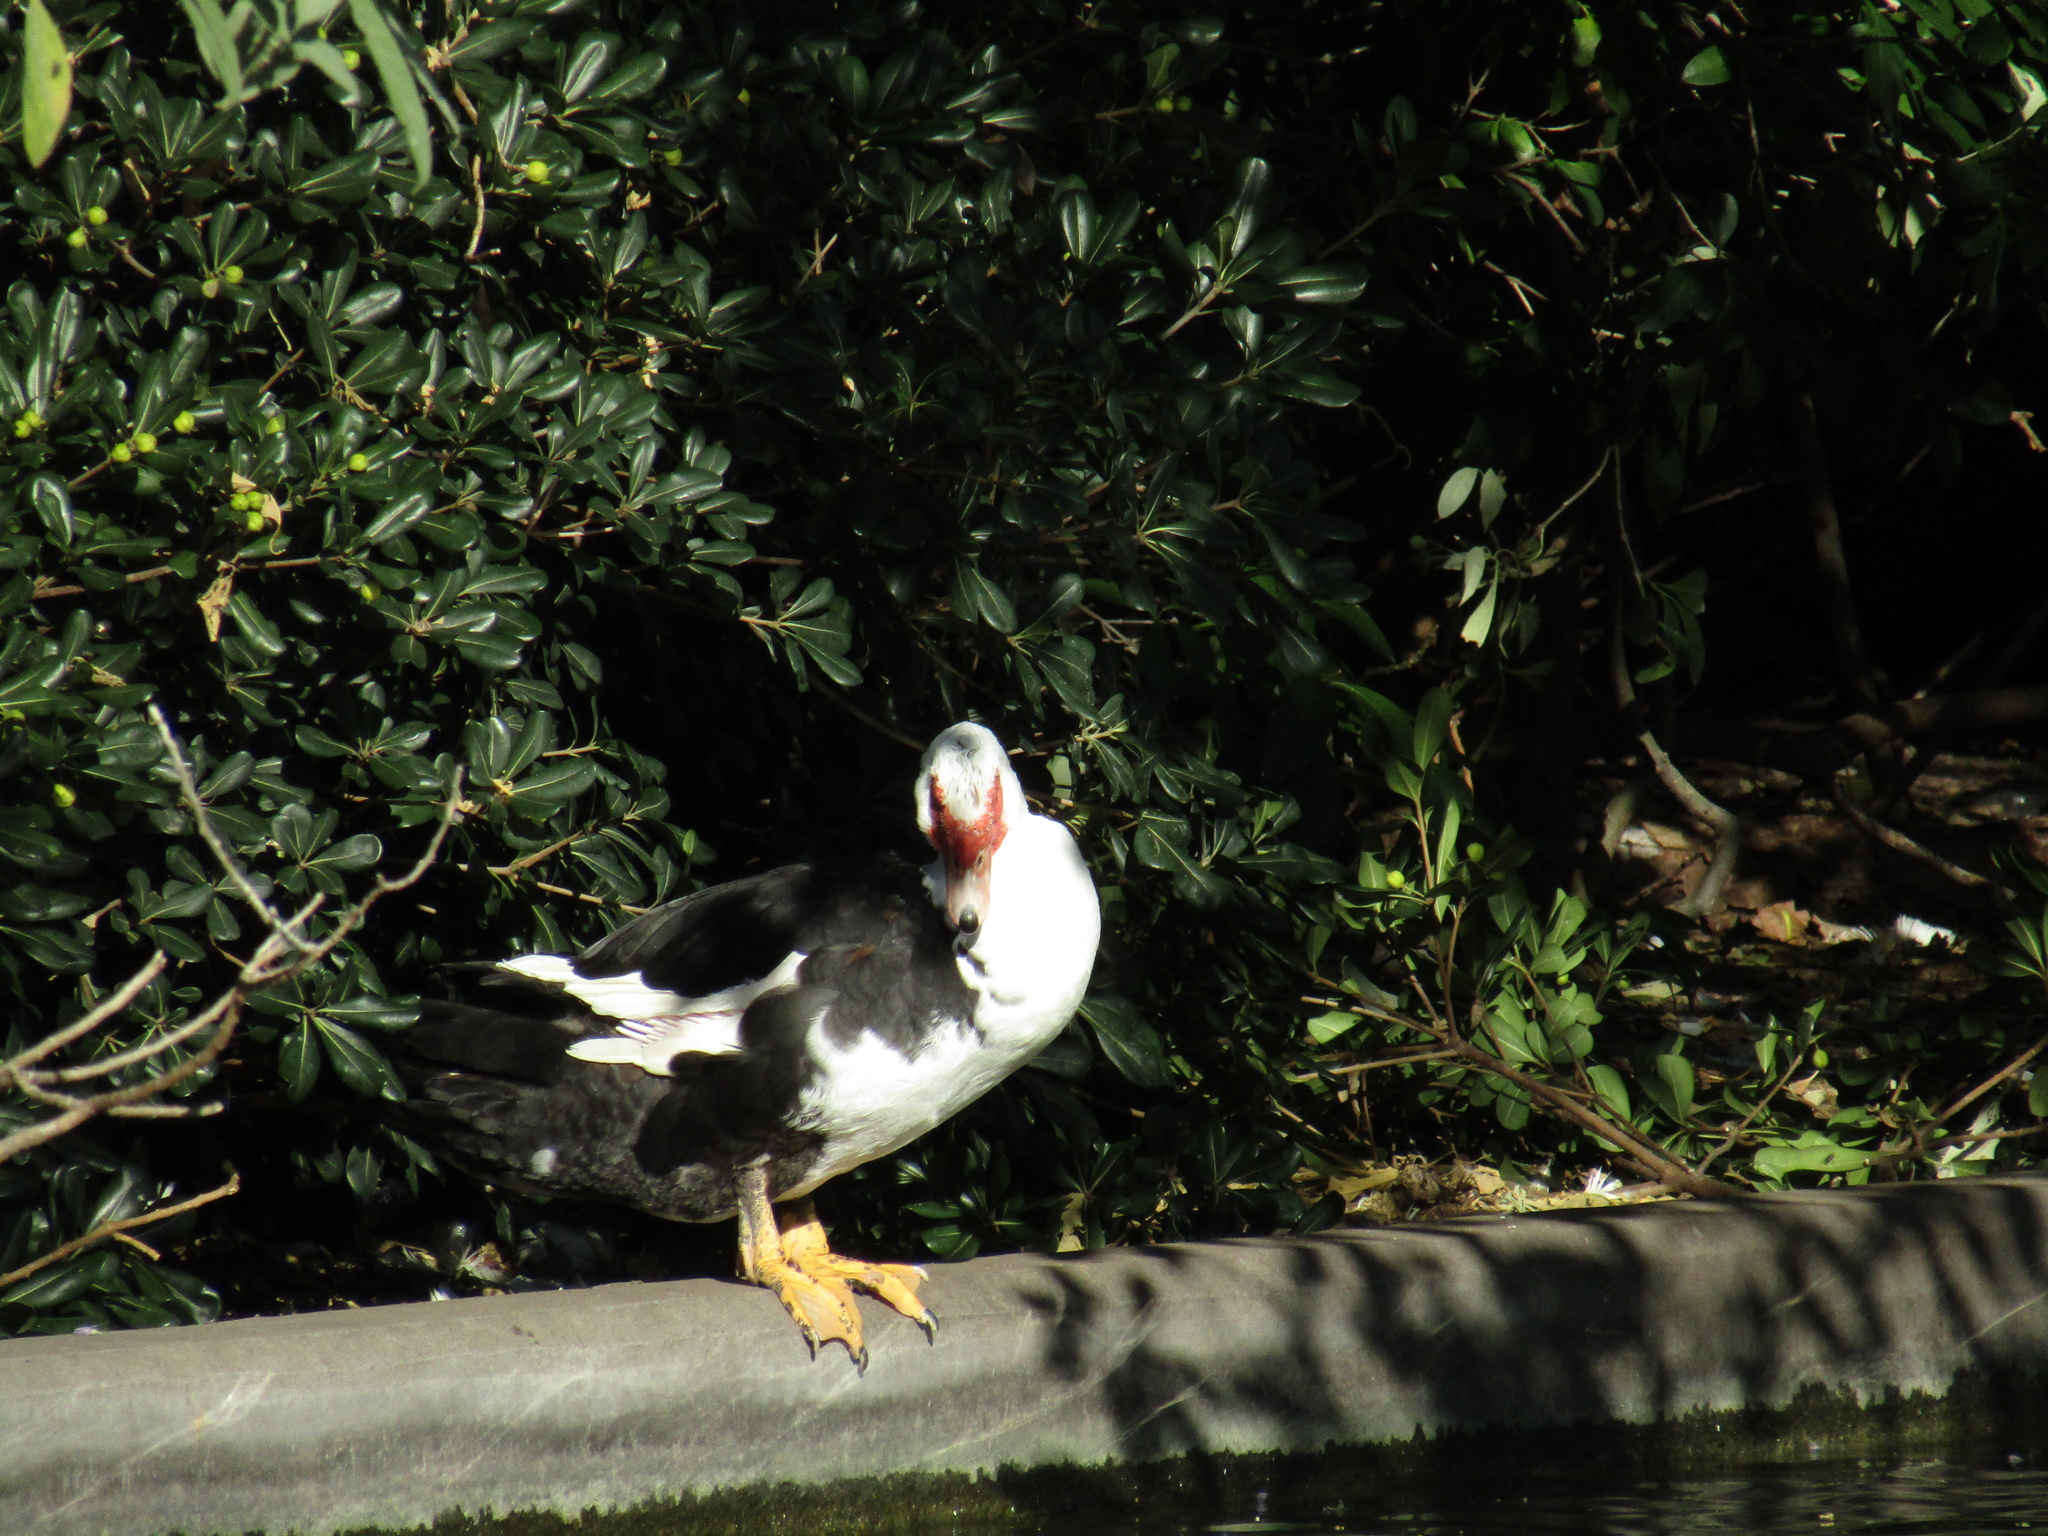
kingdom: Animalia
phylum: Chordata
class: Aves
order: Anseriformes
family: Anatidae
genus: Cairina
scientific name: Cairina moschata
